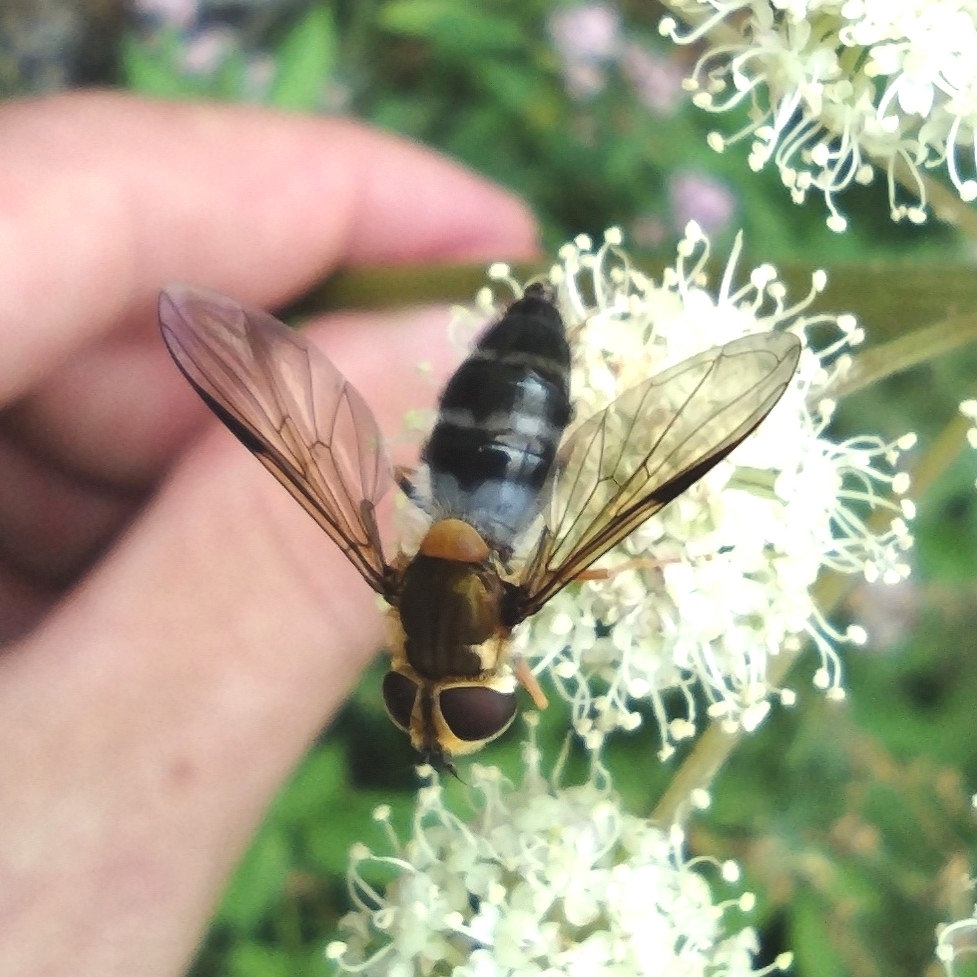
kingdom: Animalia
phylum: Arthropoda
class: Insecta
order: Diptera
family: Syrphidae
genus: Leucozona
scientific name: Leucozona glaucia
